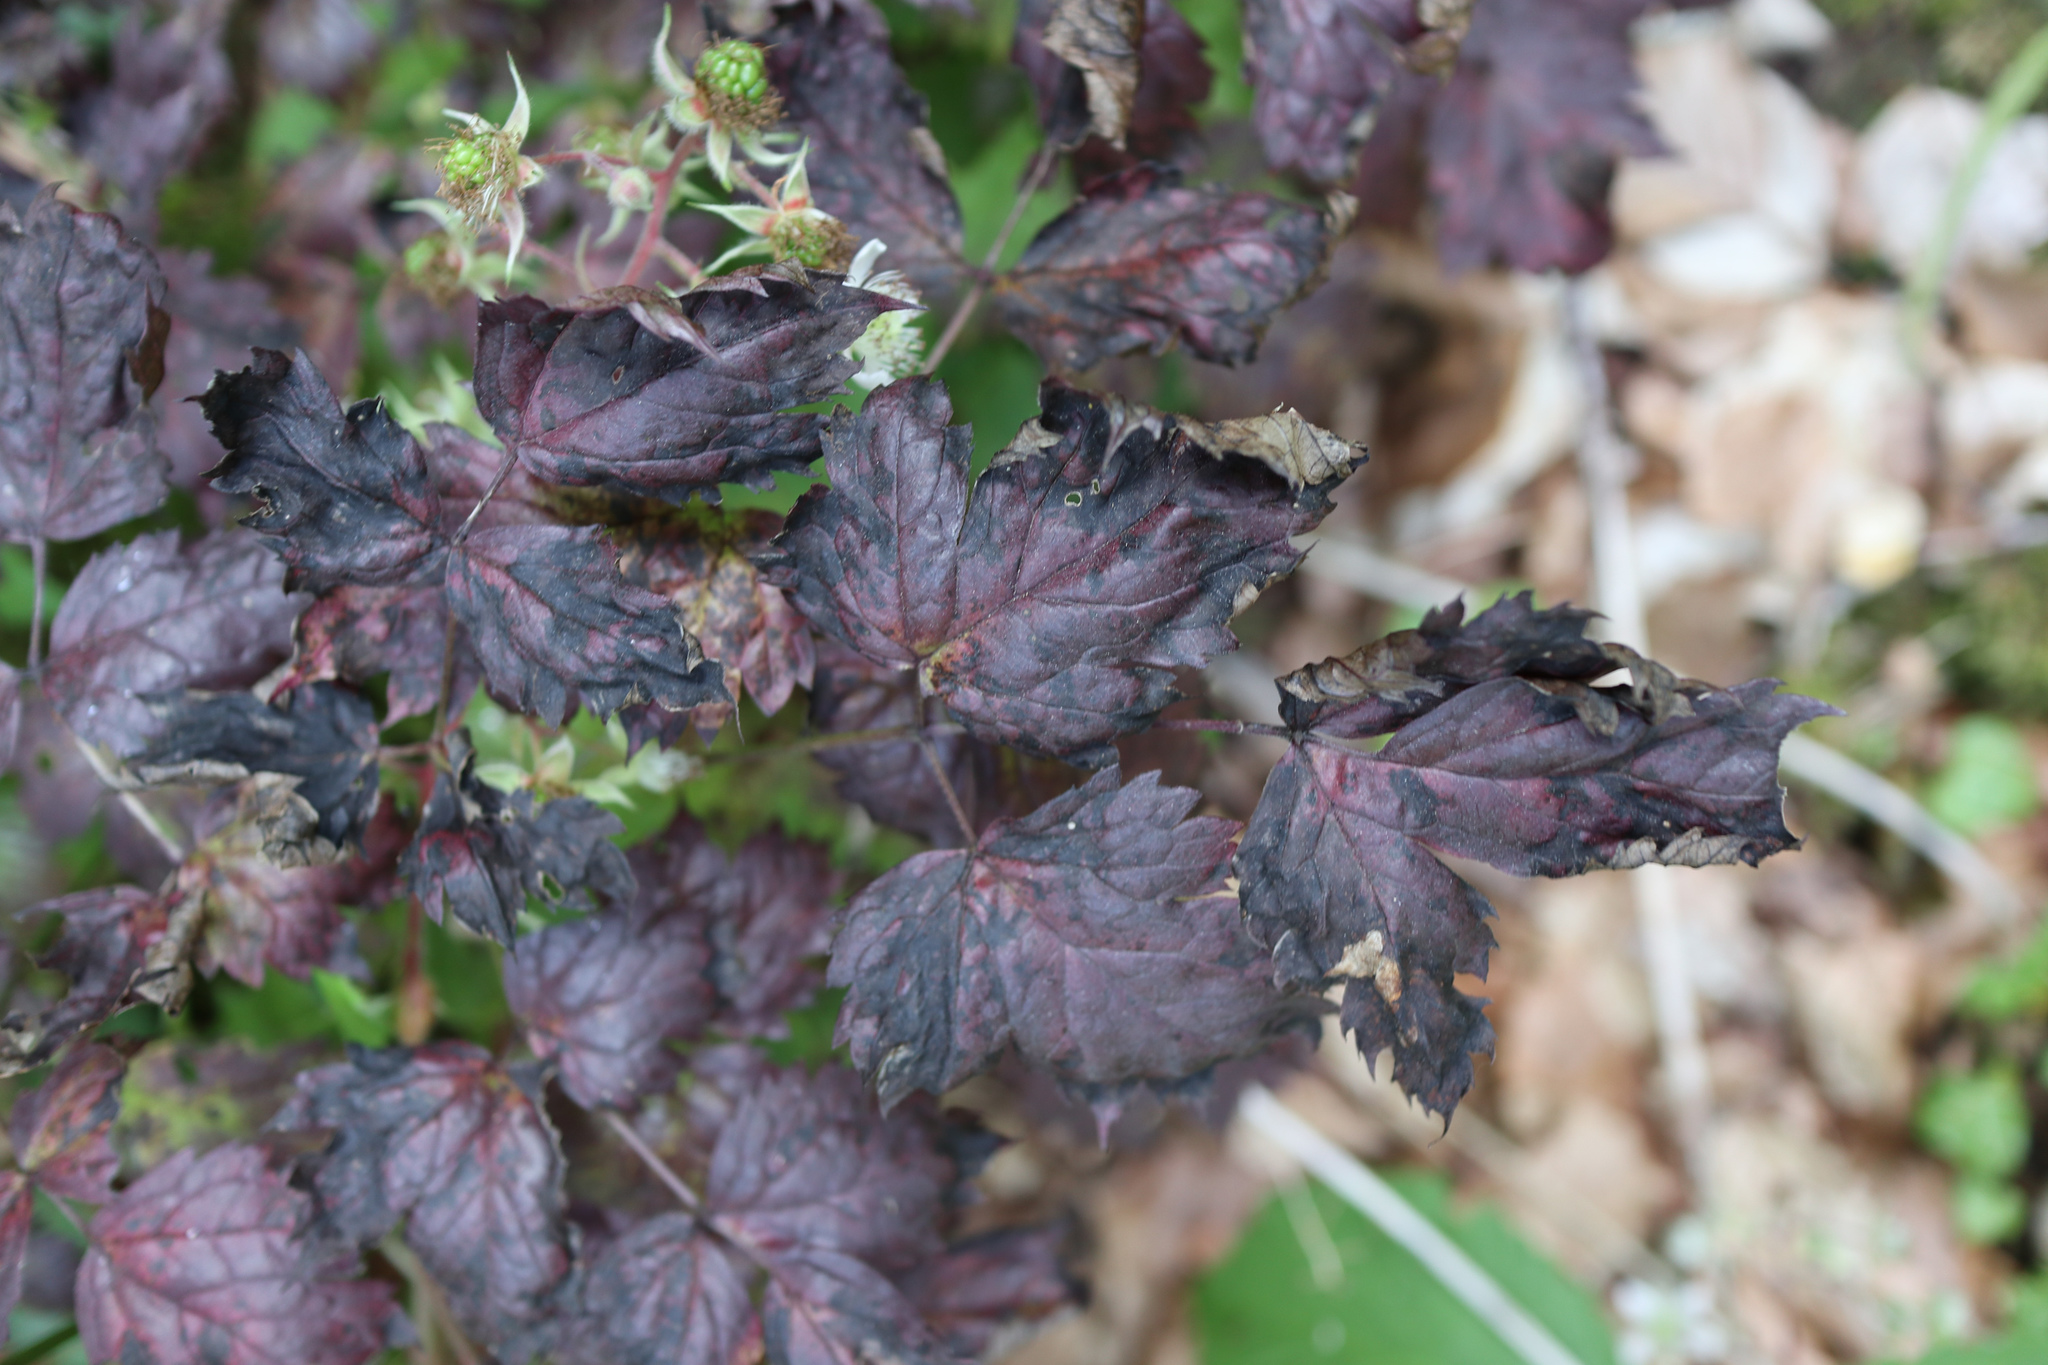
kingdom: Plantae
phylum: Tracheophyta
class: Magnoliopsida
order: Ranunculales
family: Ranunculaceae
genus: Actaea
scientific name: Actaea spicata
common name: Baneberry
